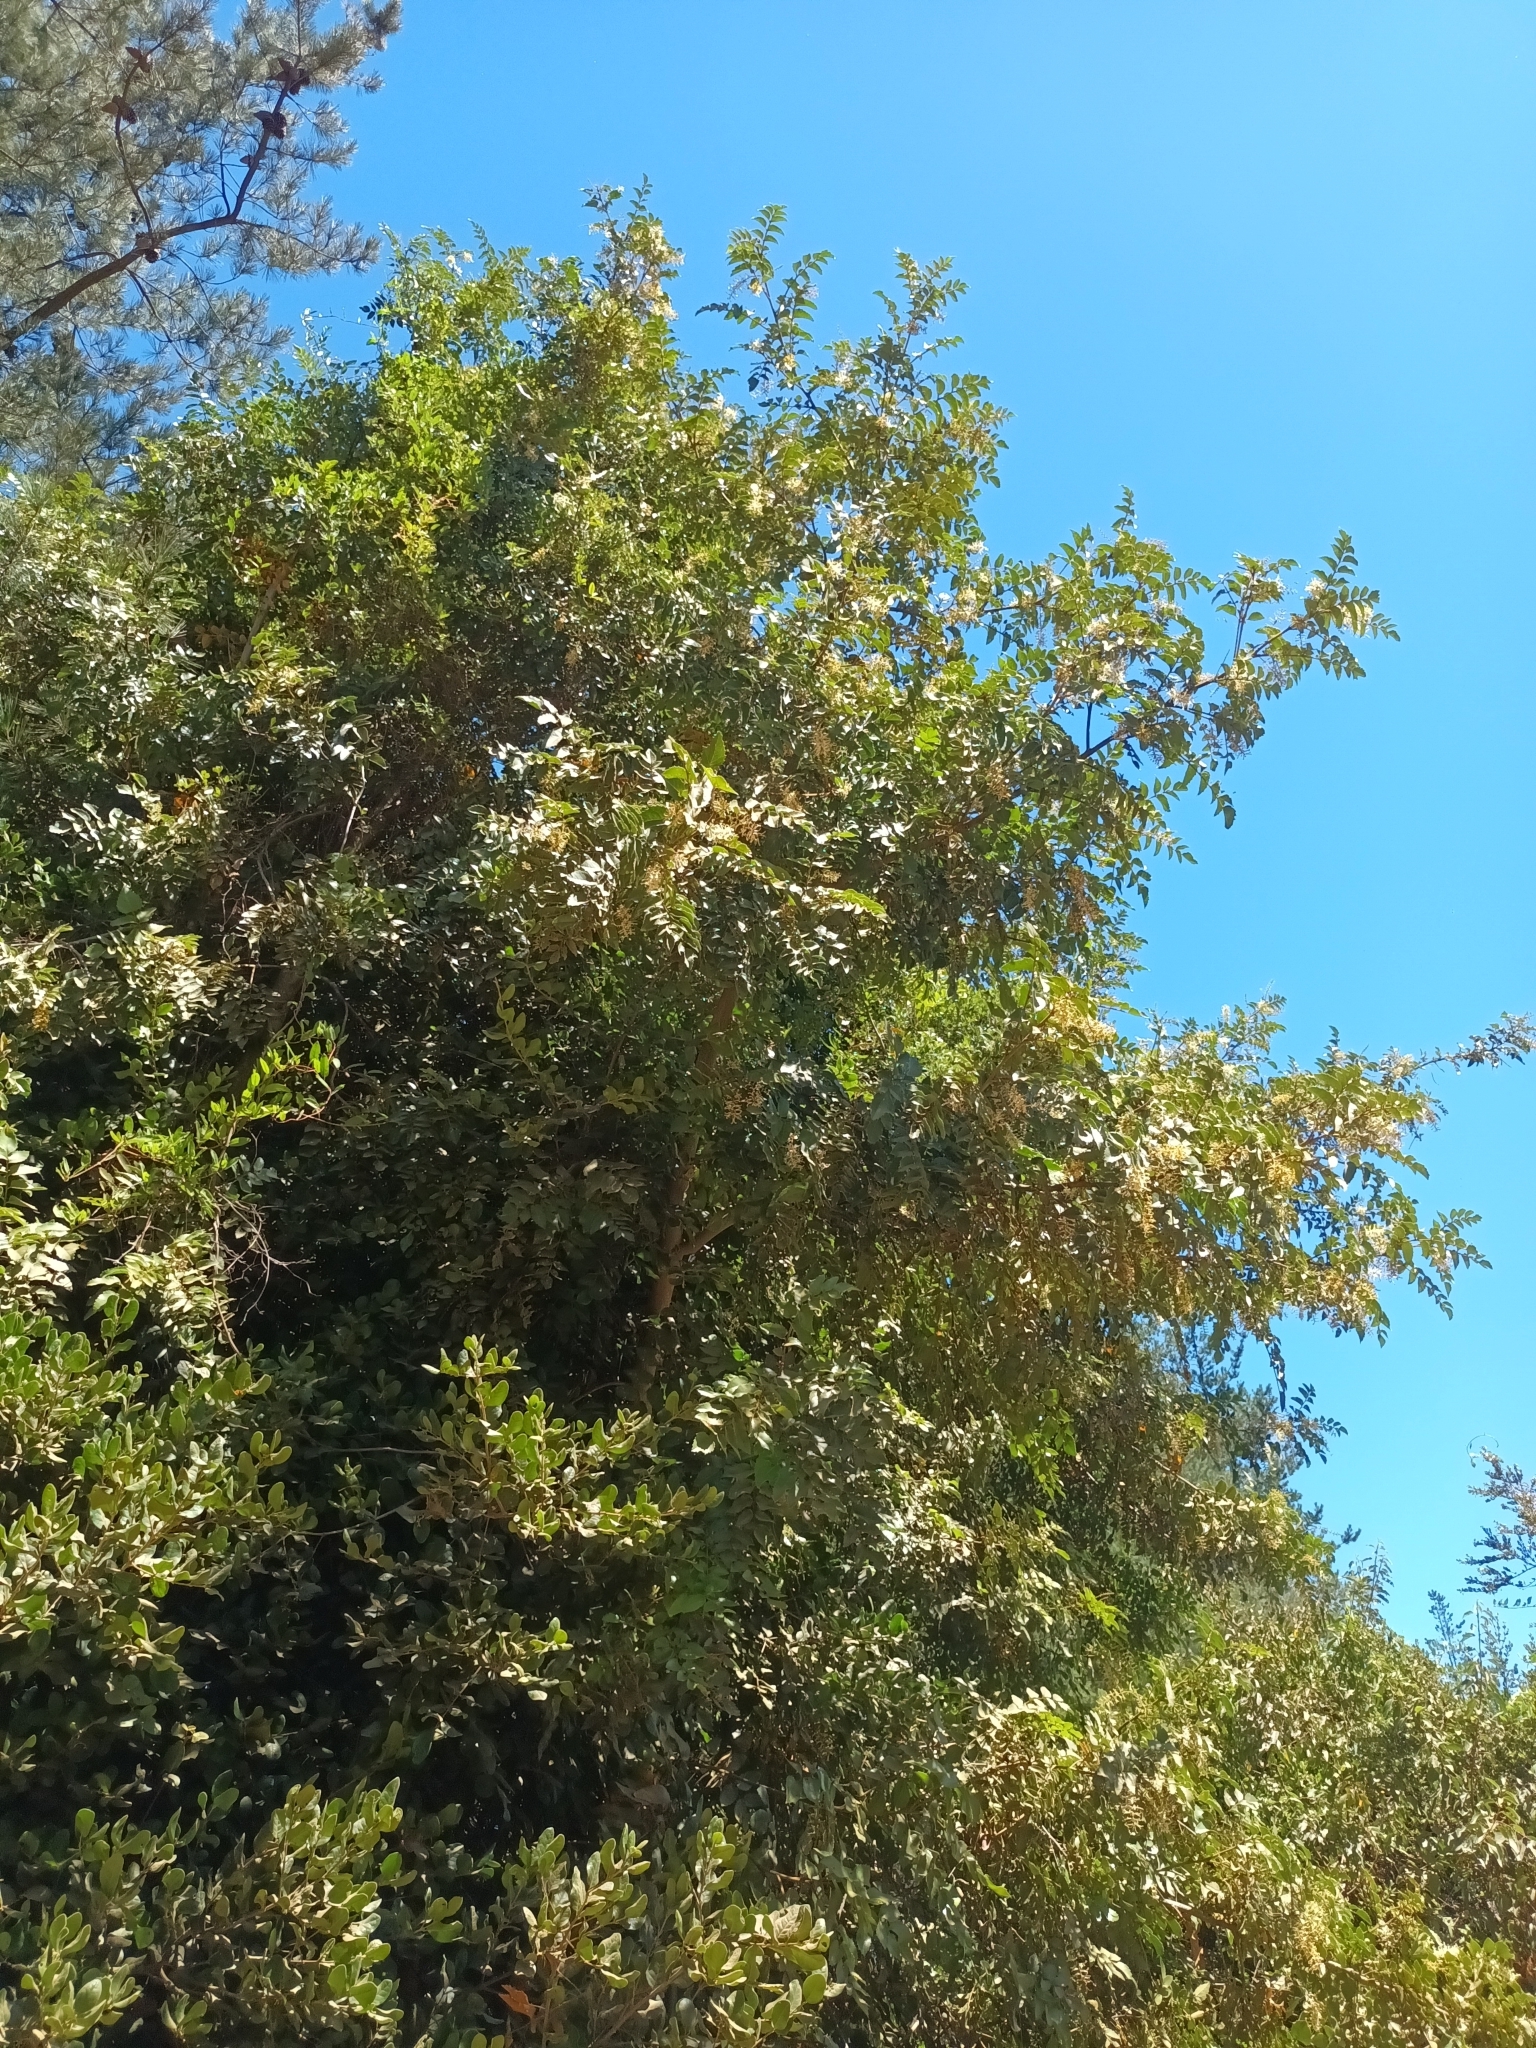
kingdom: Plantae
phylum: Tracheophyta
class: Magnoliopsida
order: Proteales
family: Proteaceae
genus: Gevuina
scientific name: Gevuina avellana
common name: Chilean hazel
